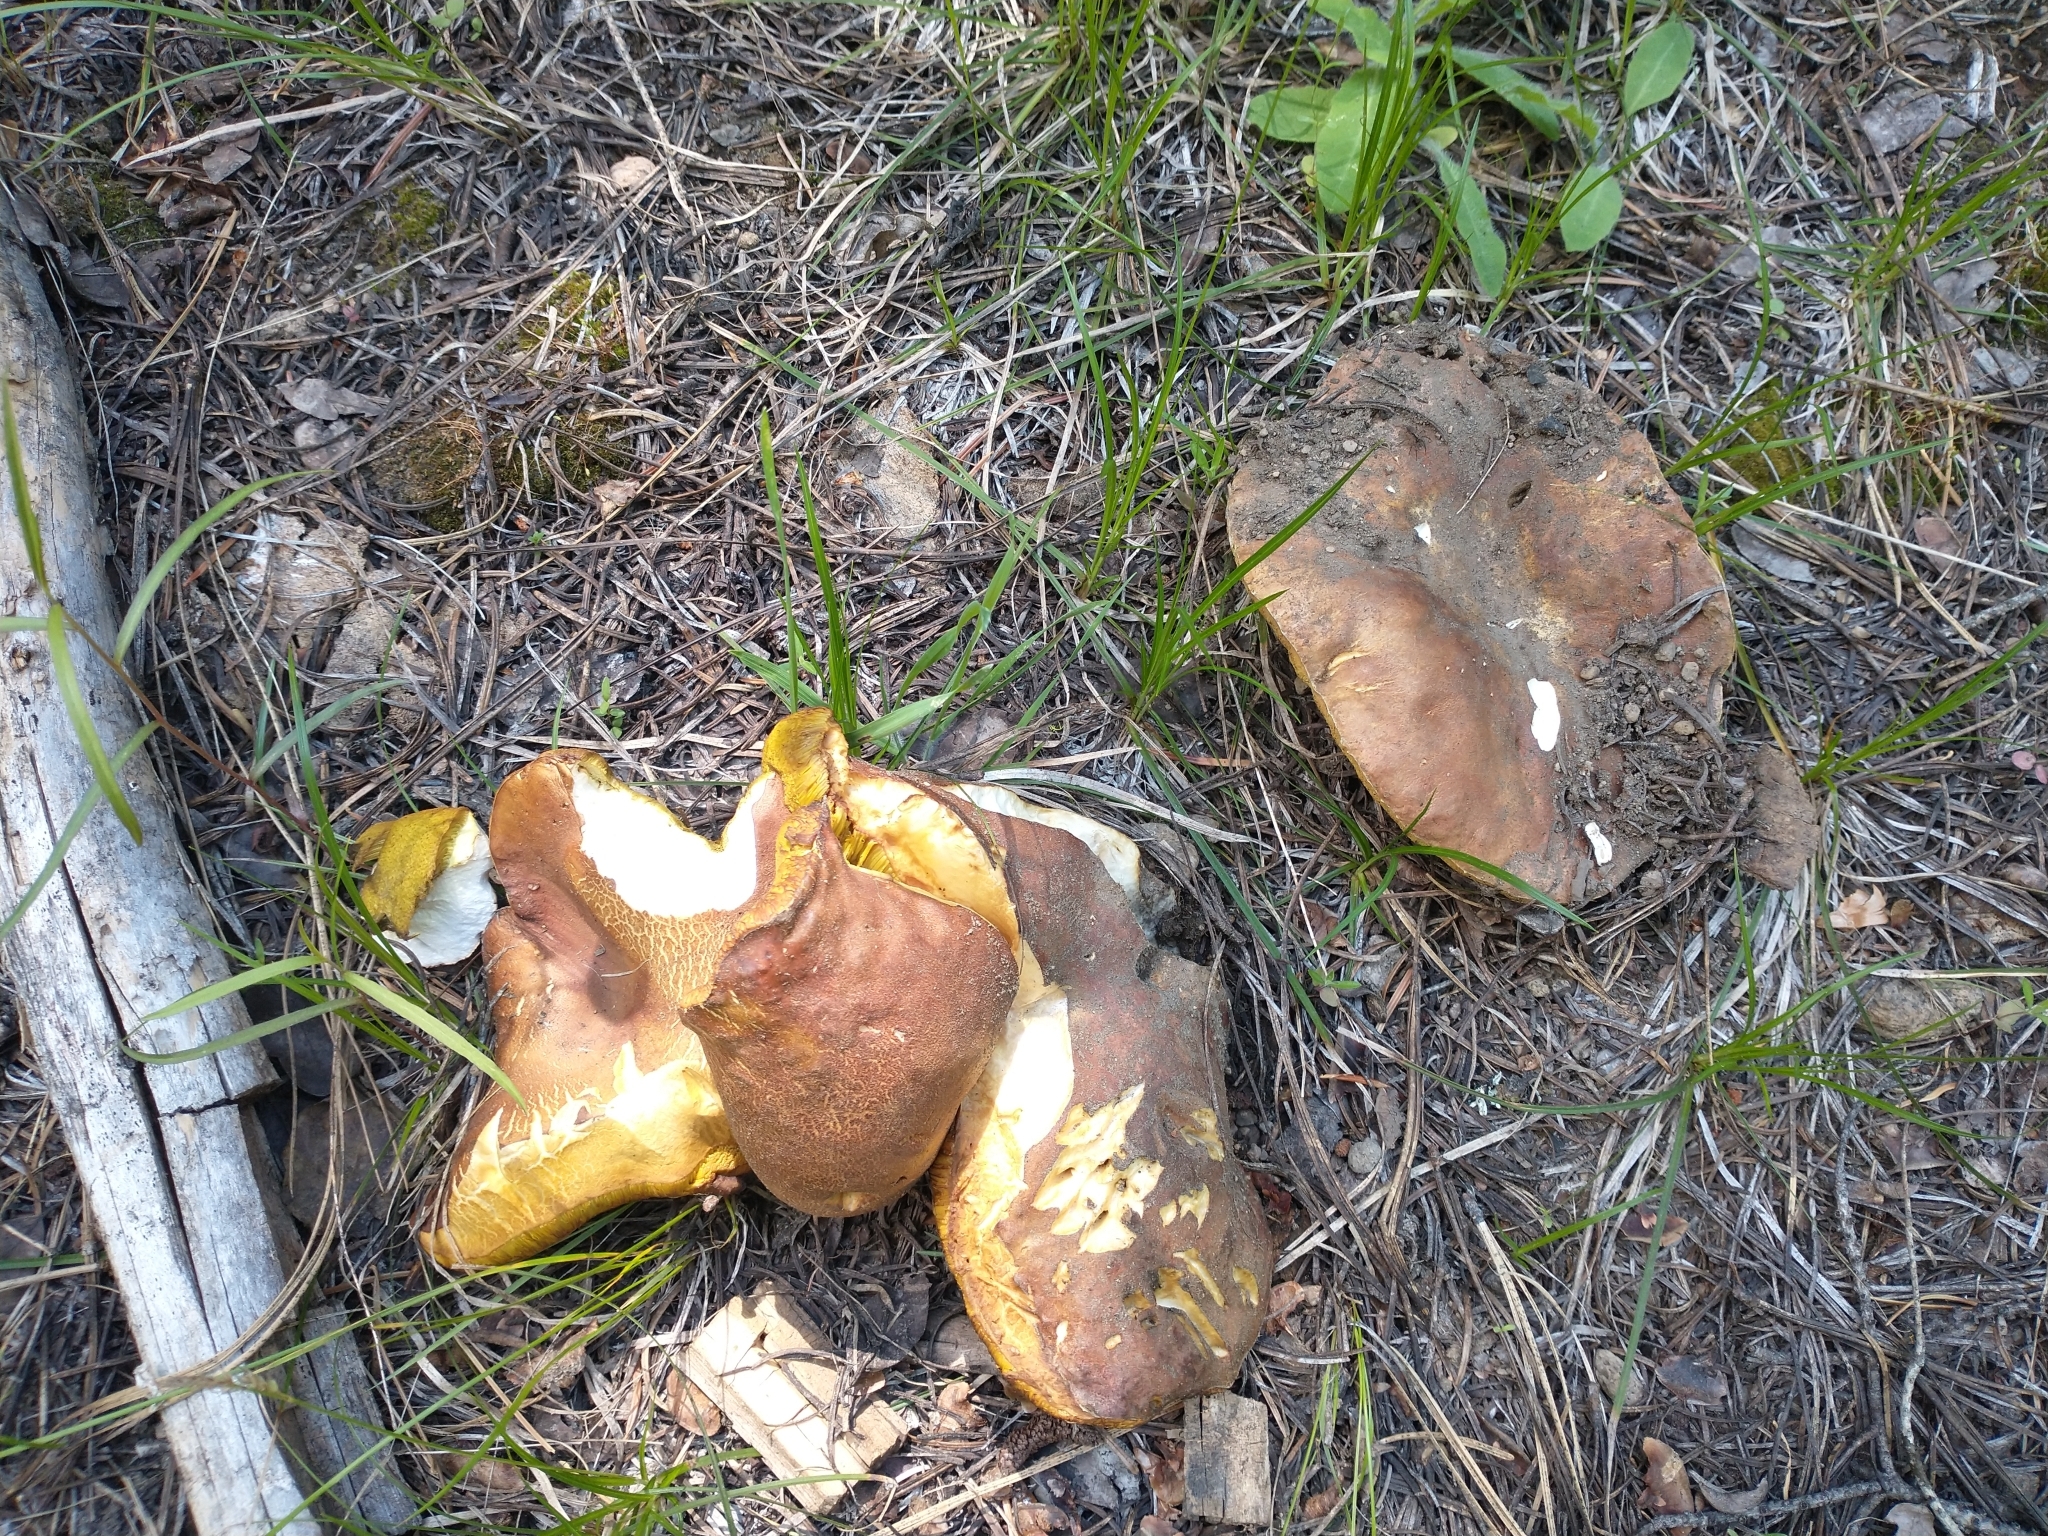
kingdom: Fungi
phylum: Basidiomycota
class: Agaricomycetes
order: Boletales
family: Boletaceae
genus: Boletus
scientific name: Boletus rex-veris
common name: Spring king
